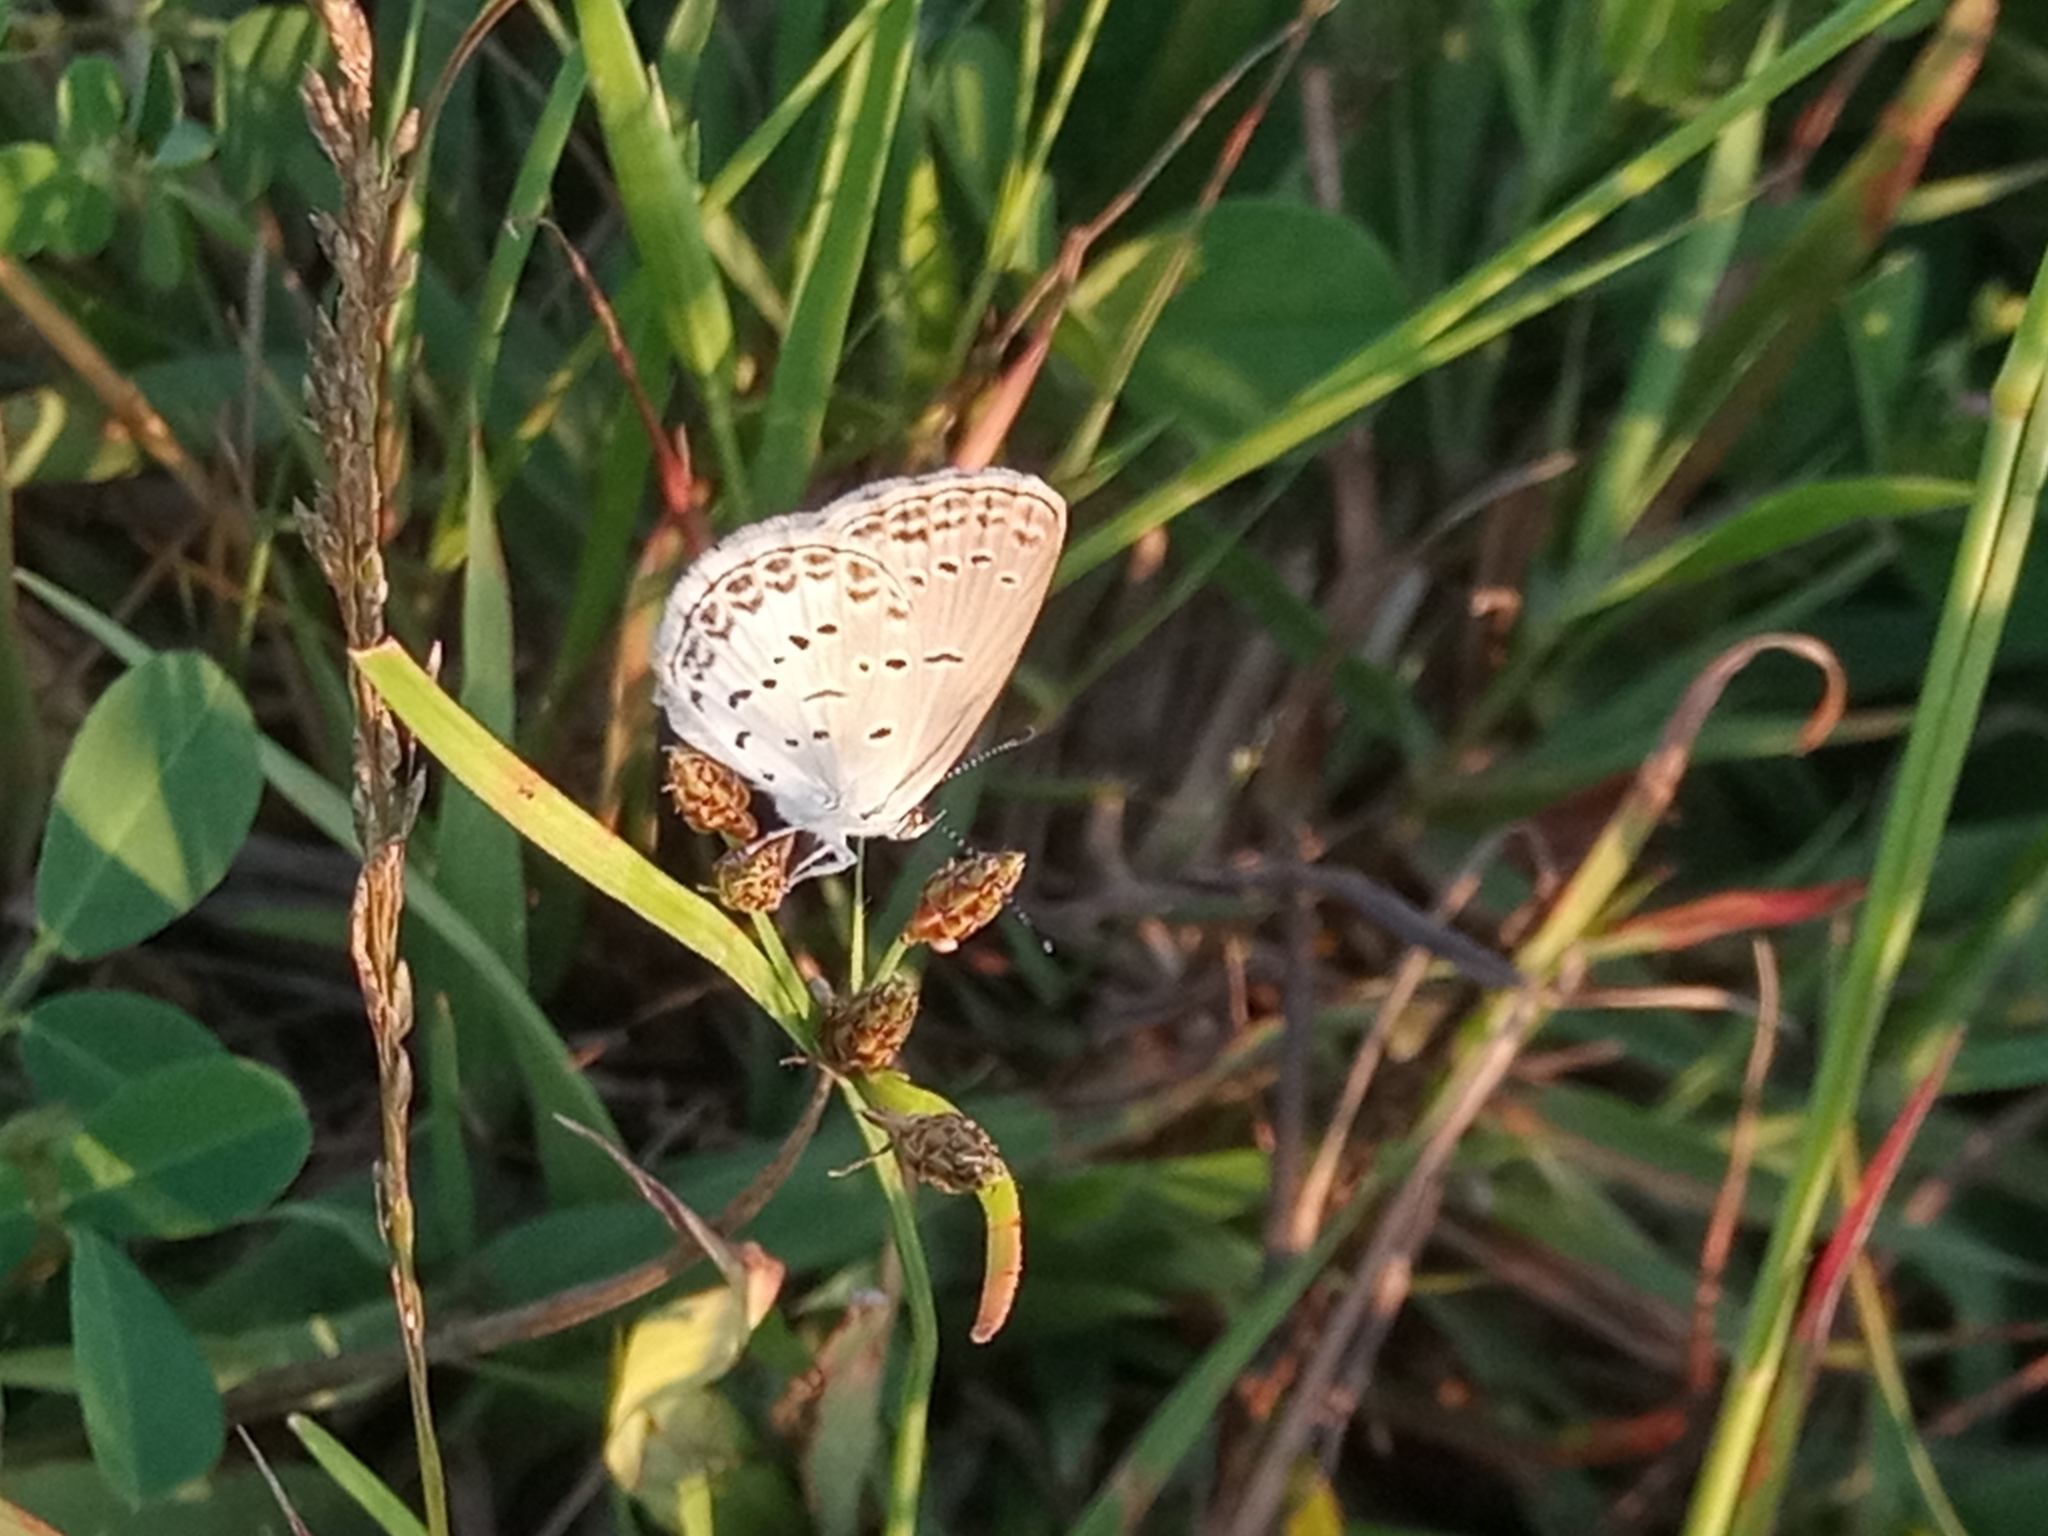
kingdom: Animalia
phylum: Arthropoda
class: Insecta
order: Lepidoptera
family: Lycaenidae
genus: Zizina
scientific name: Zizina antanossa
